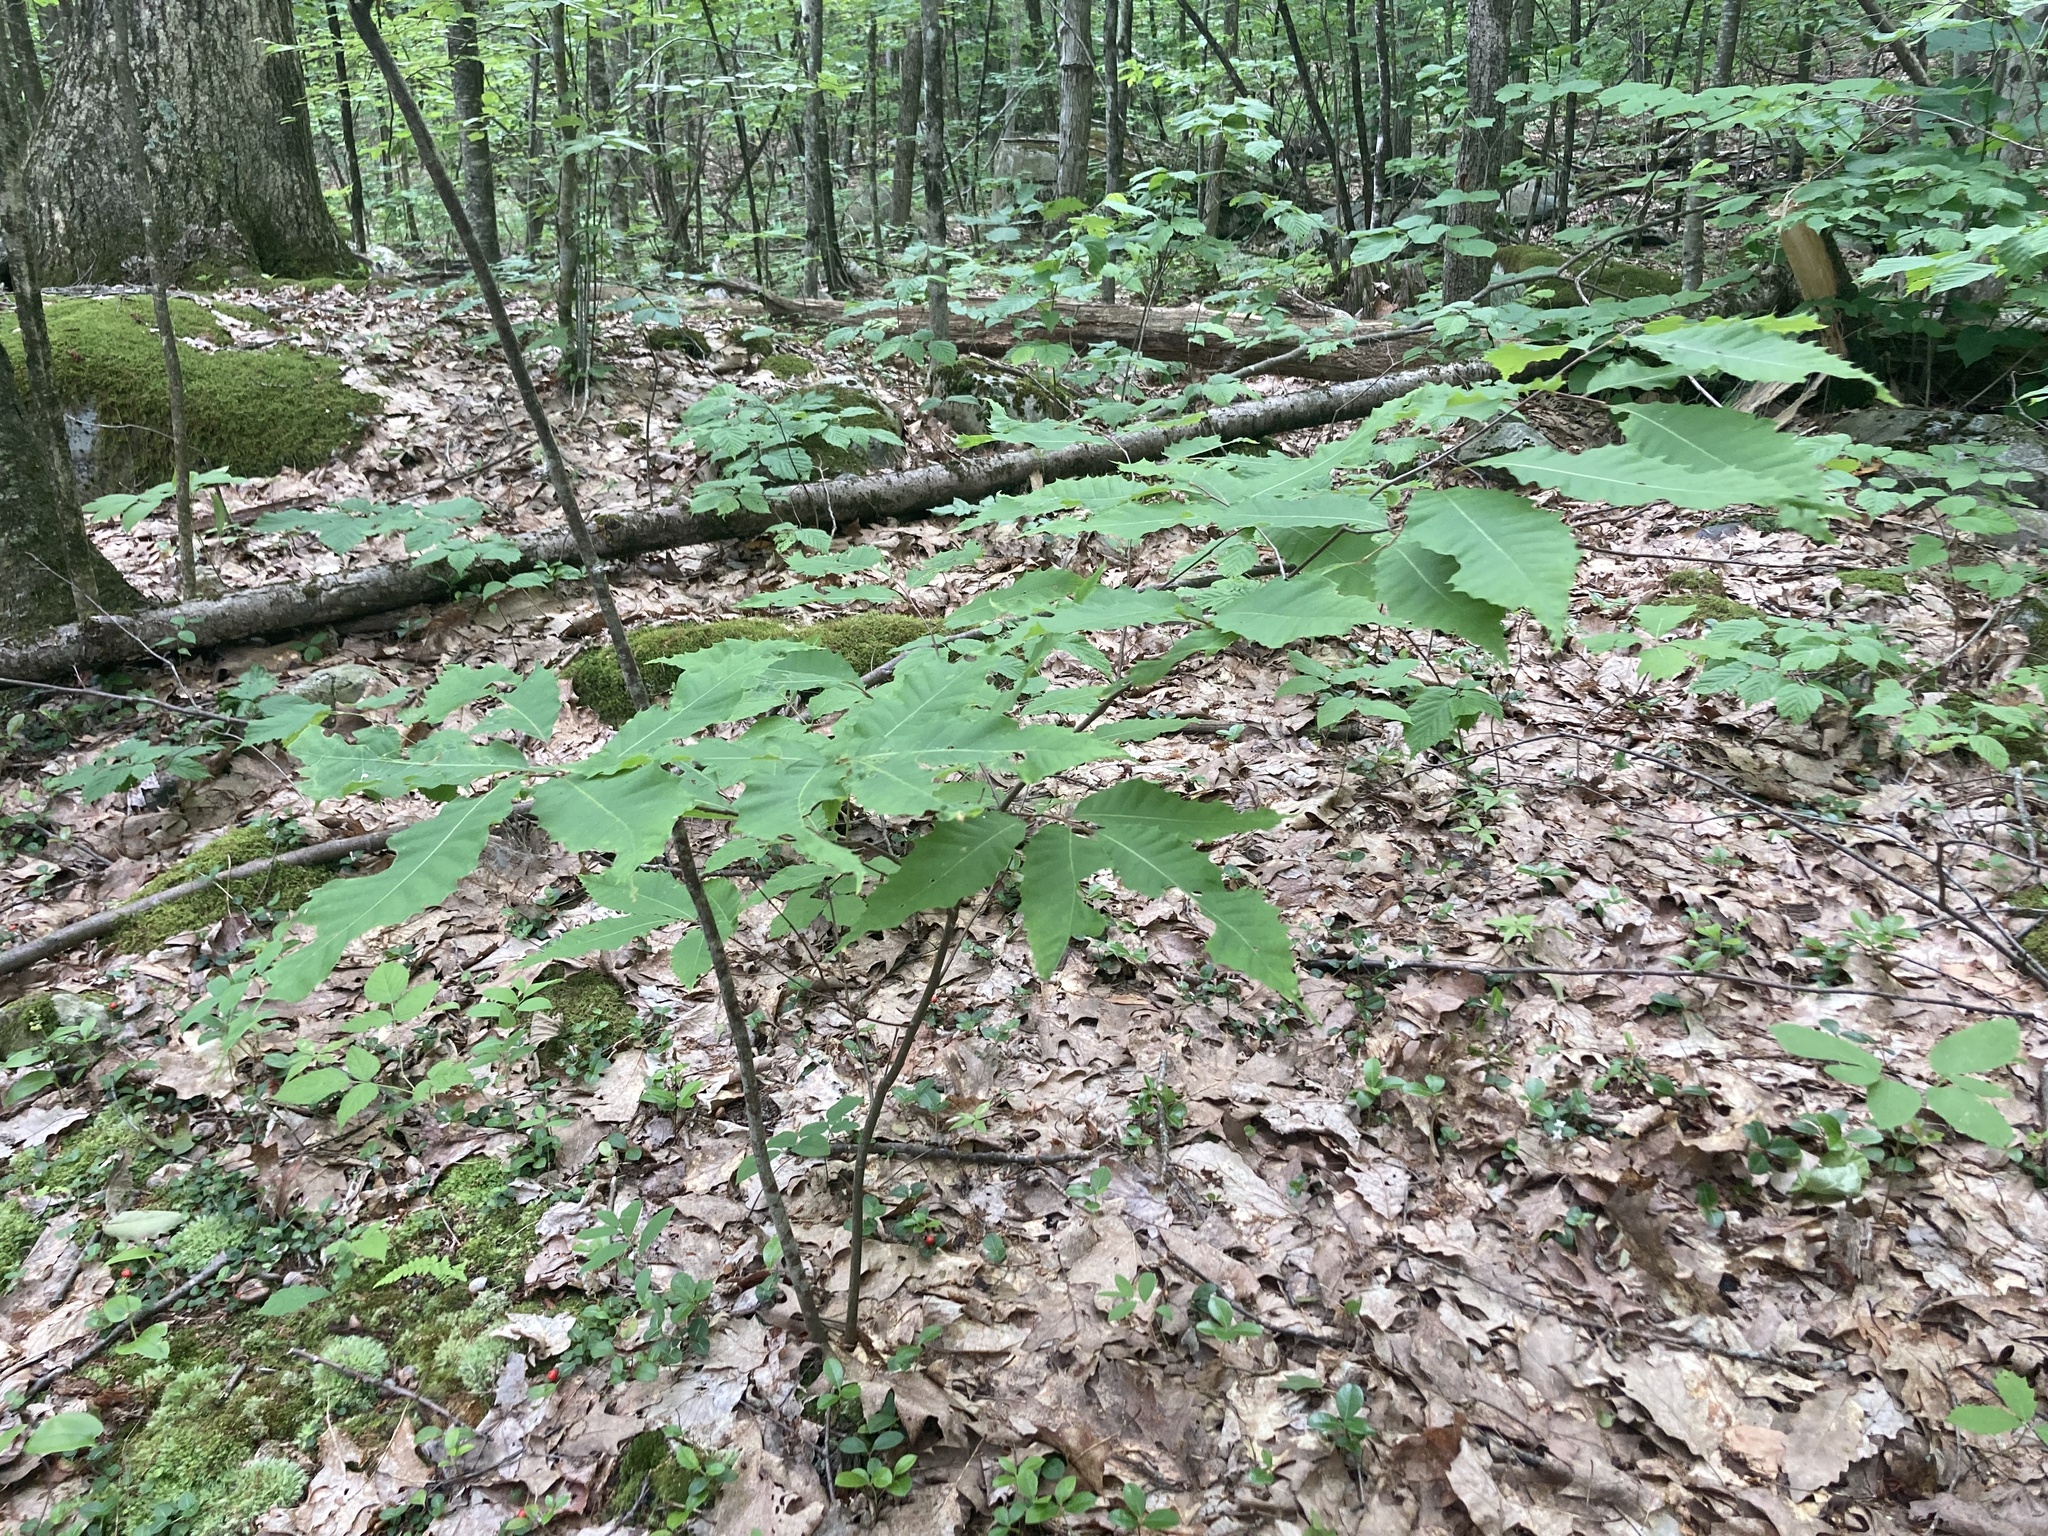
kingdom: Plantae
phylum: Tracheophyta
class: Magnoliopsida
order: Fagales
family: Fagaceae
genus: Castanea
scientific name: Castanea dentata
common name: American chestnut
